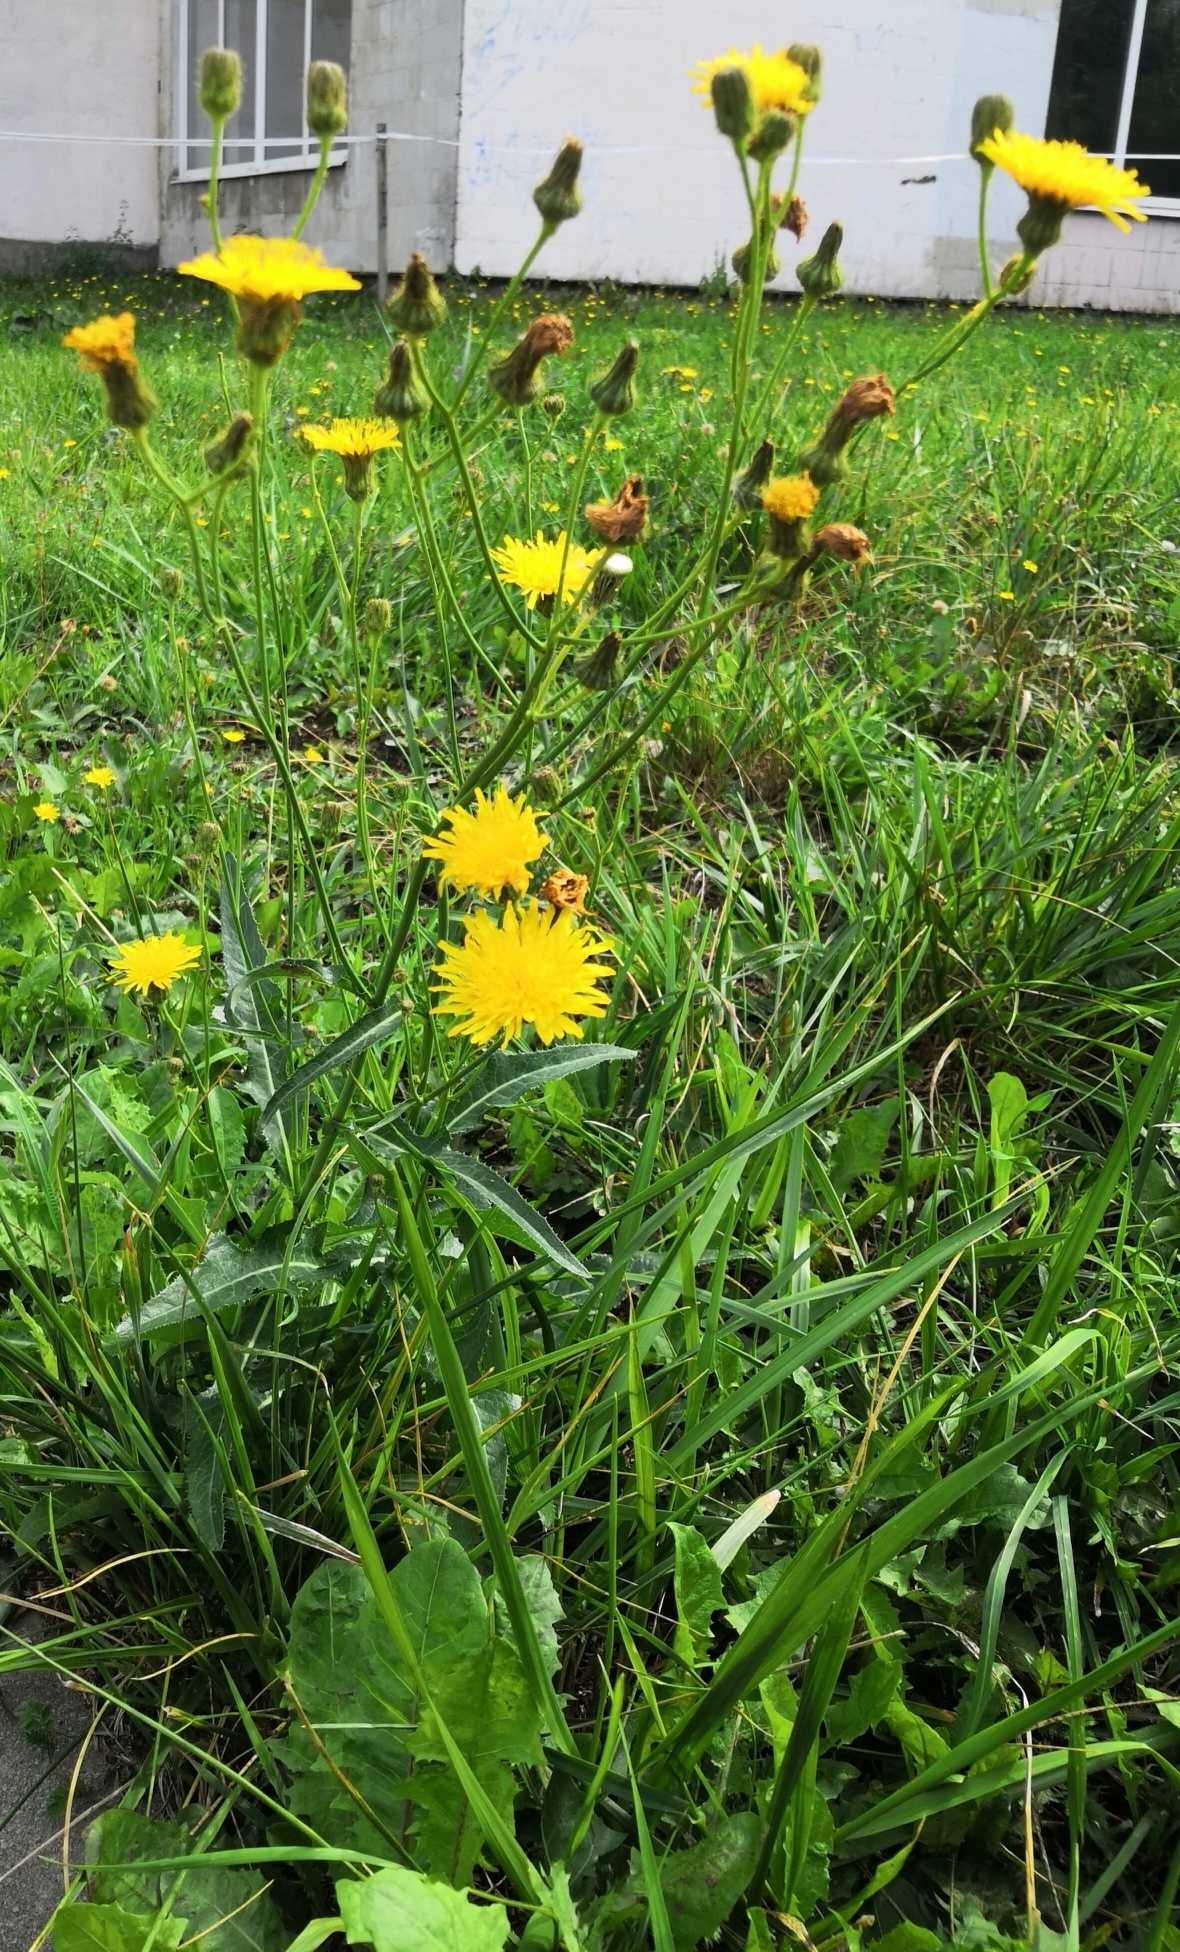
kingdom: Plantae
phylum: Tracheophyta
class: Magnoliopsida
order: Asterales
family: Asteraceae
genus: Sonchus
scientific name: Sonchus arvensis
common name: Perennial sow-thistle
